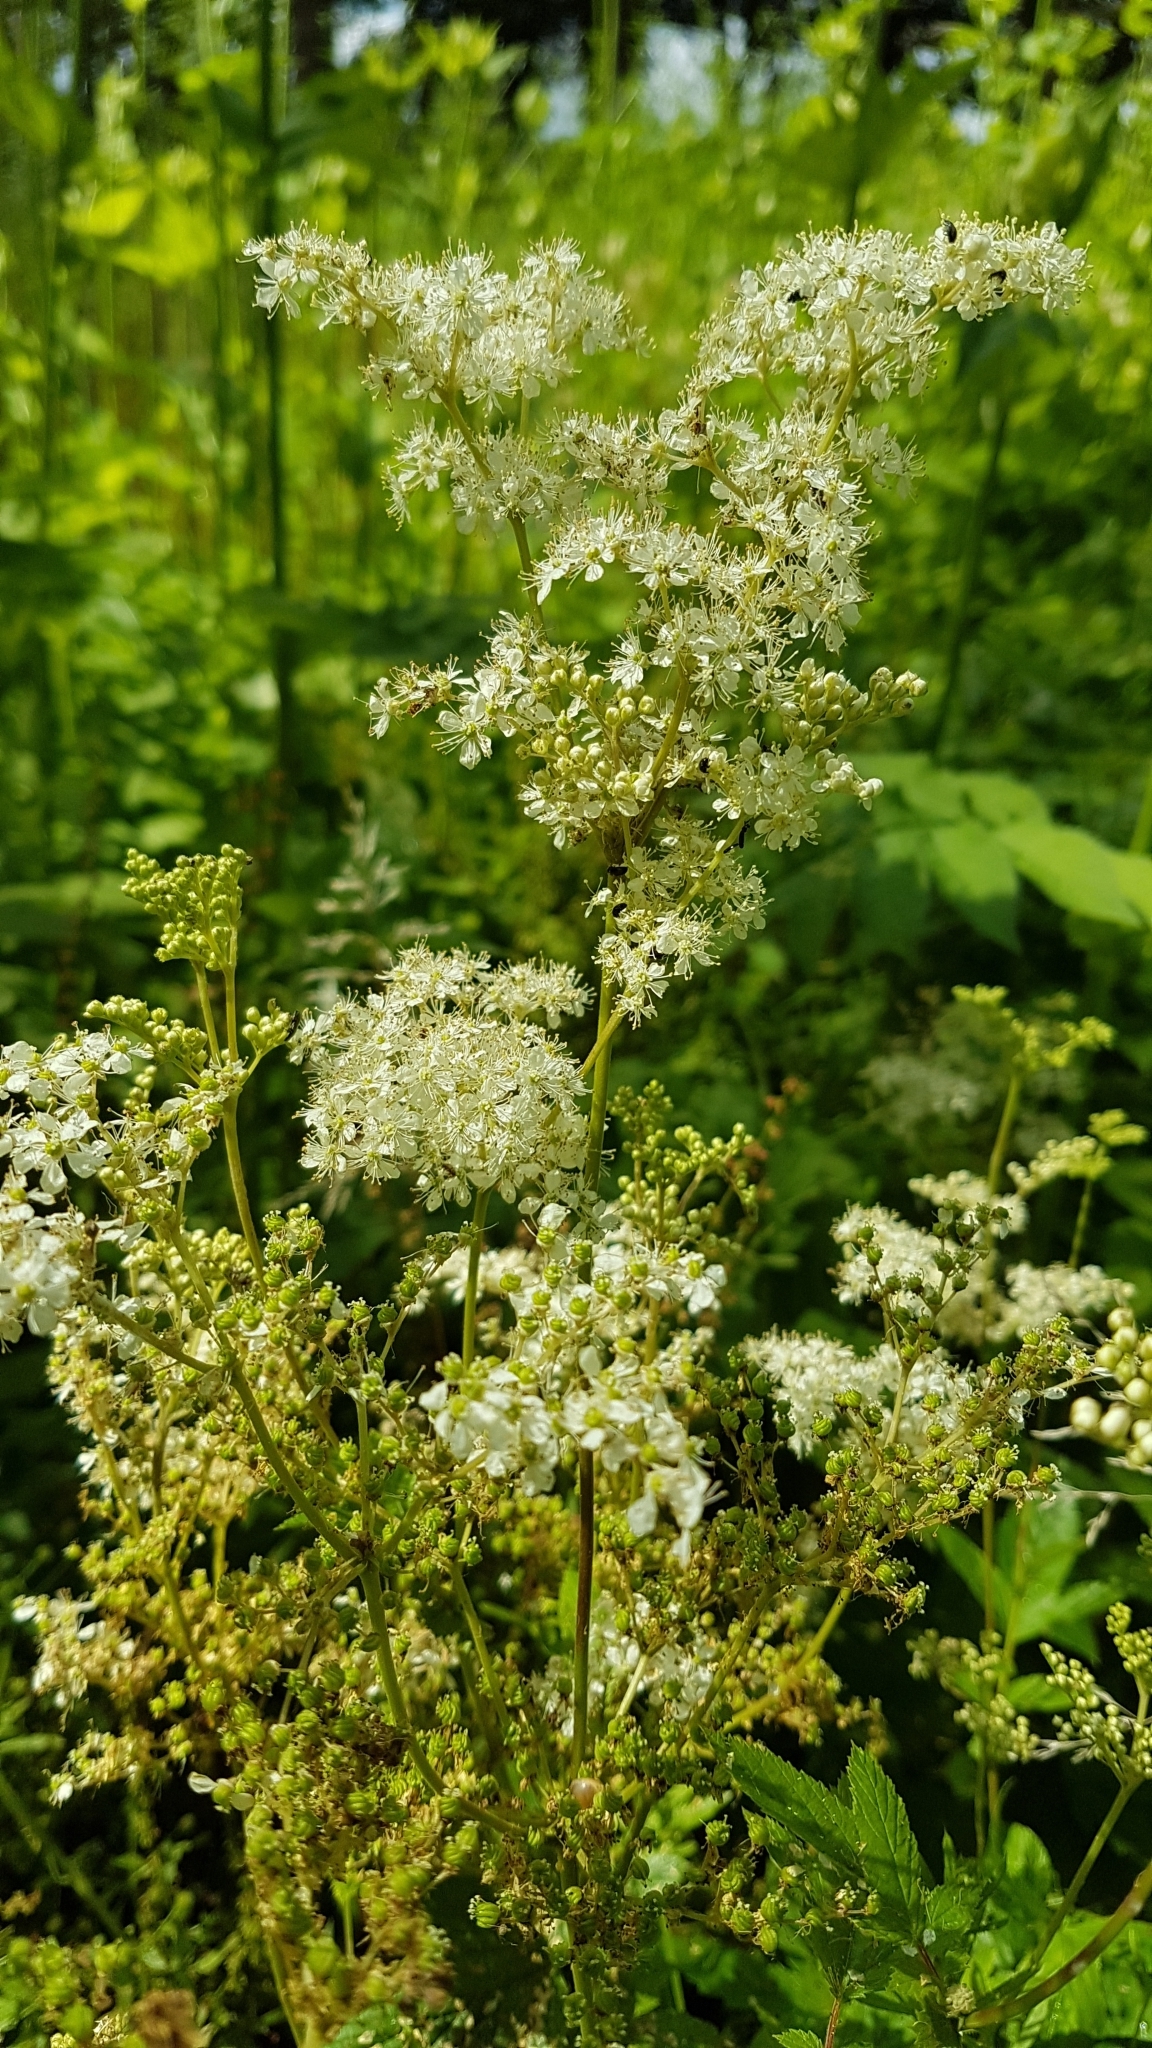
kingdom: Plantae
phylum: Tracheophyta
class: Magnoliopsida
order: Rosales
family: Rosaceae
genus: Filipendula
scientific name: Filipendula ulmaria
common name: Meadowsweet
